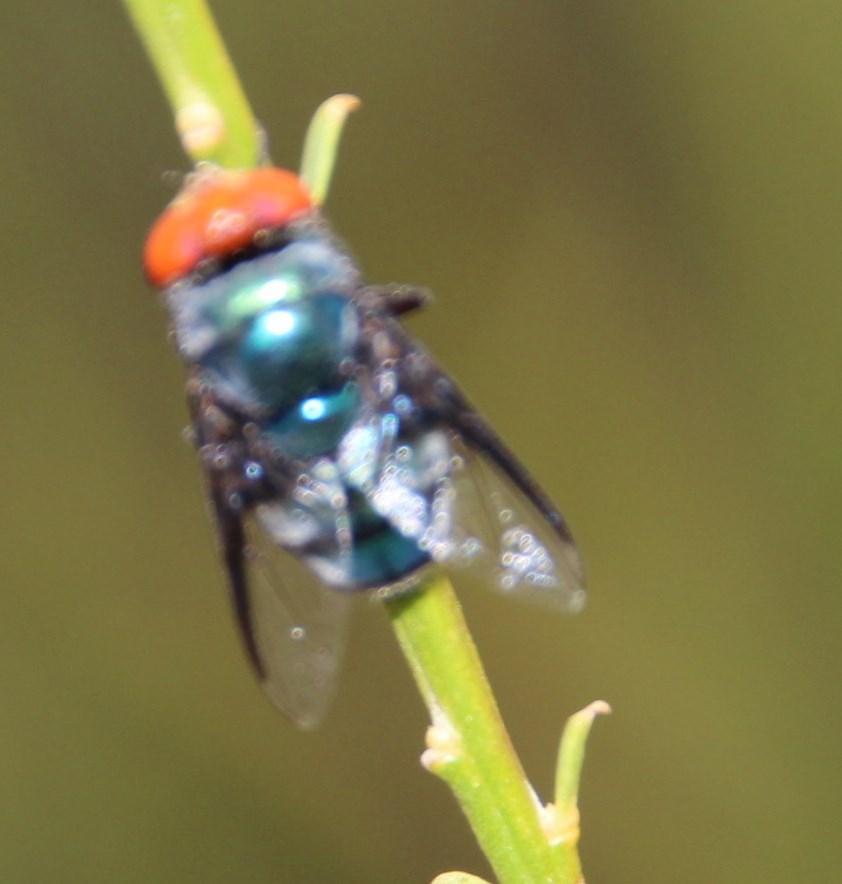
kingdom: Animalia
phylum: Arthropoda
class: Insecta
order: Diptera
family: Calliphoridae
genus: Chrysomya
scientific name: Chrysomya marginalis
